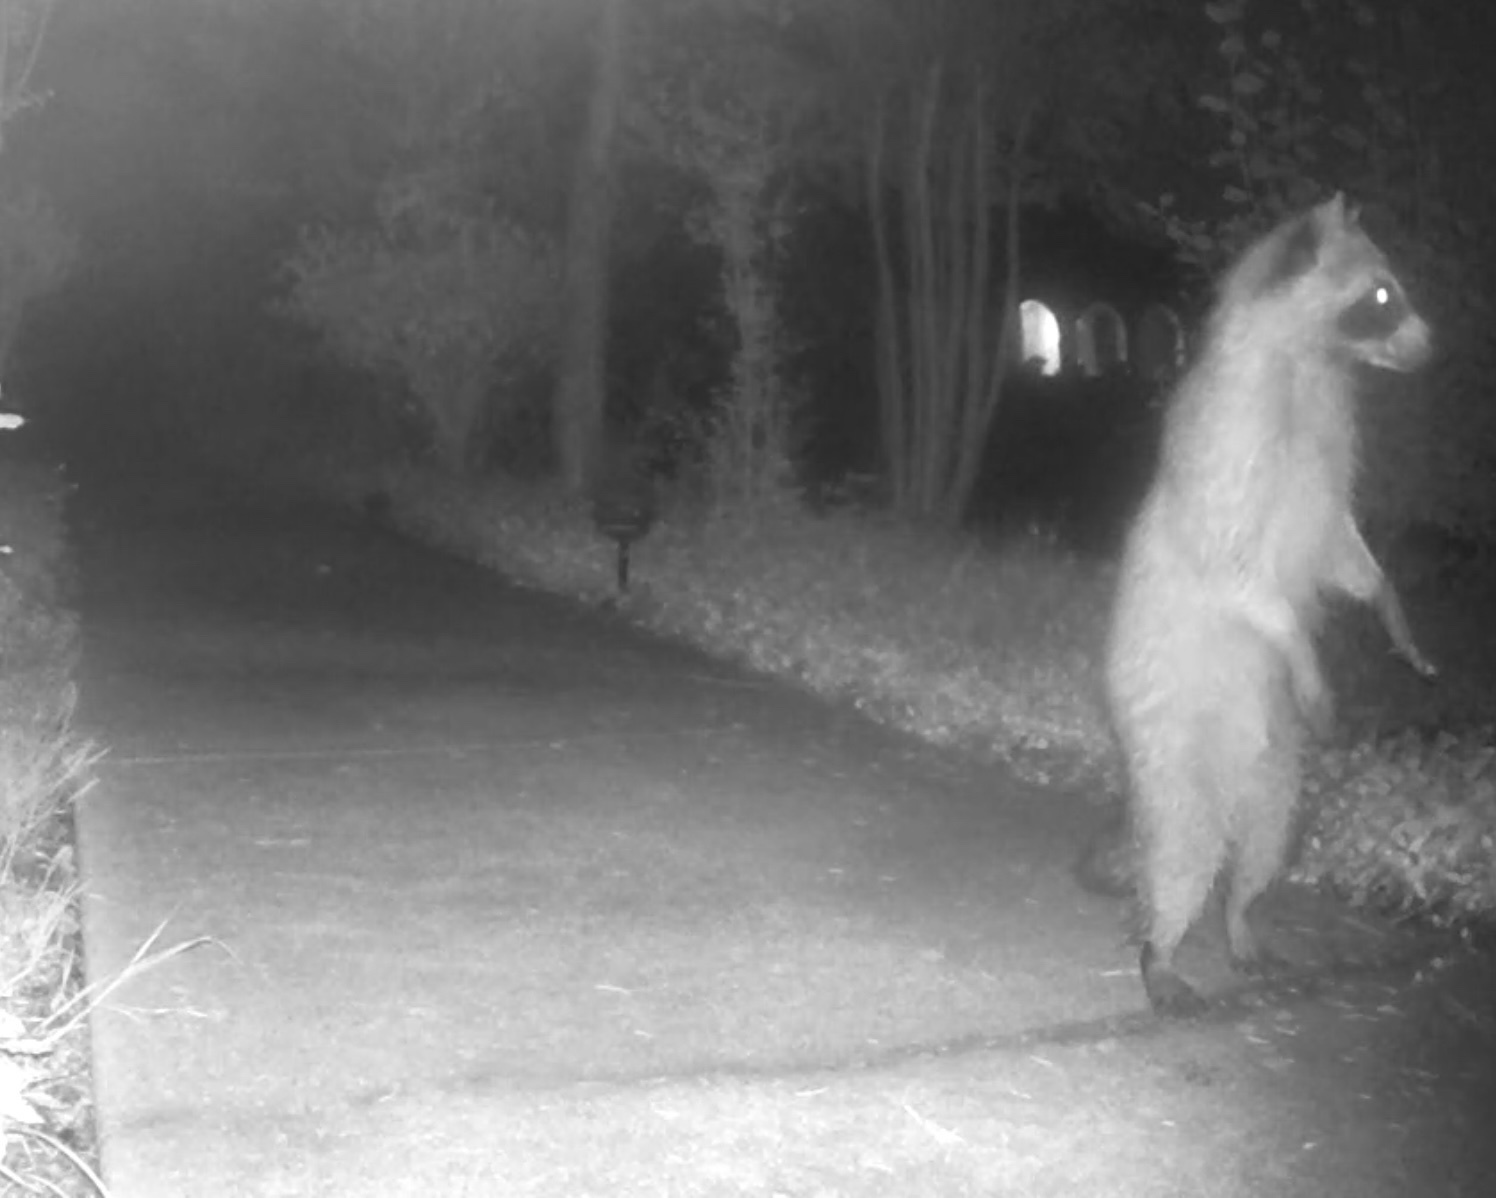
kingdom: Animalia
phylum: Chordata
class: Mammalia
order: Carnivora
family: Procyonidae
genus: Procyon
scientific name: Procyon lotor
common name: Raccoon
